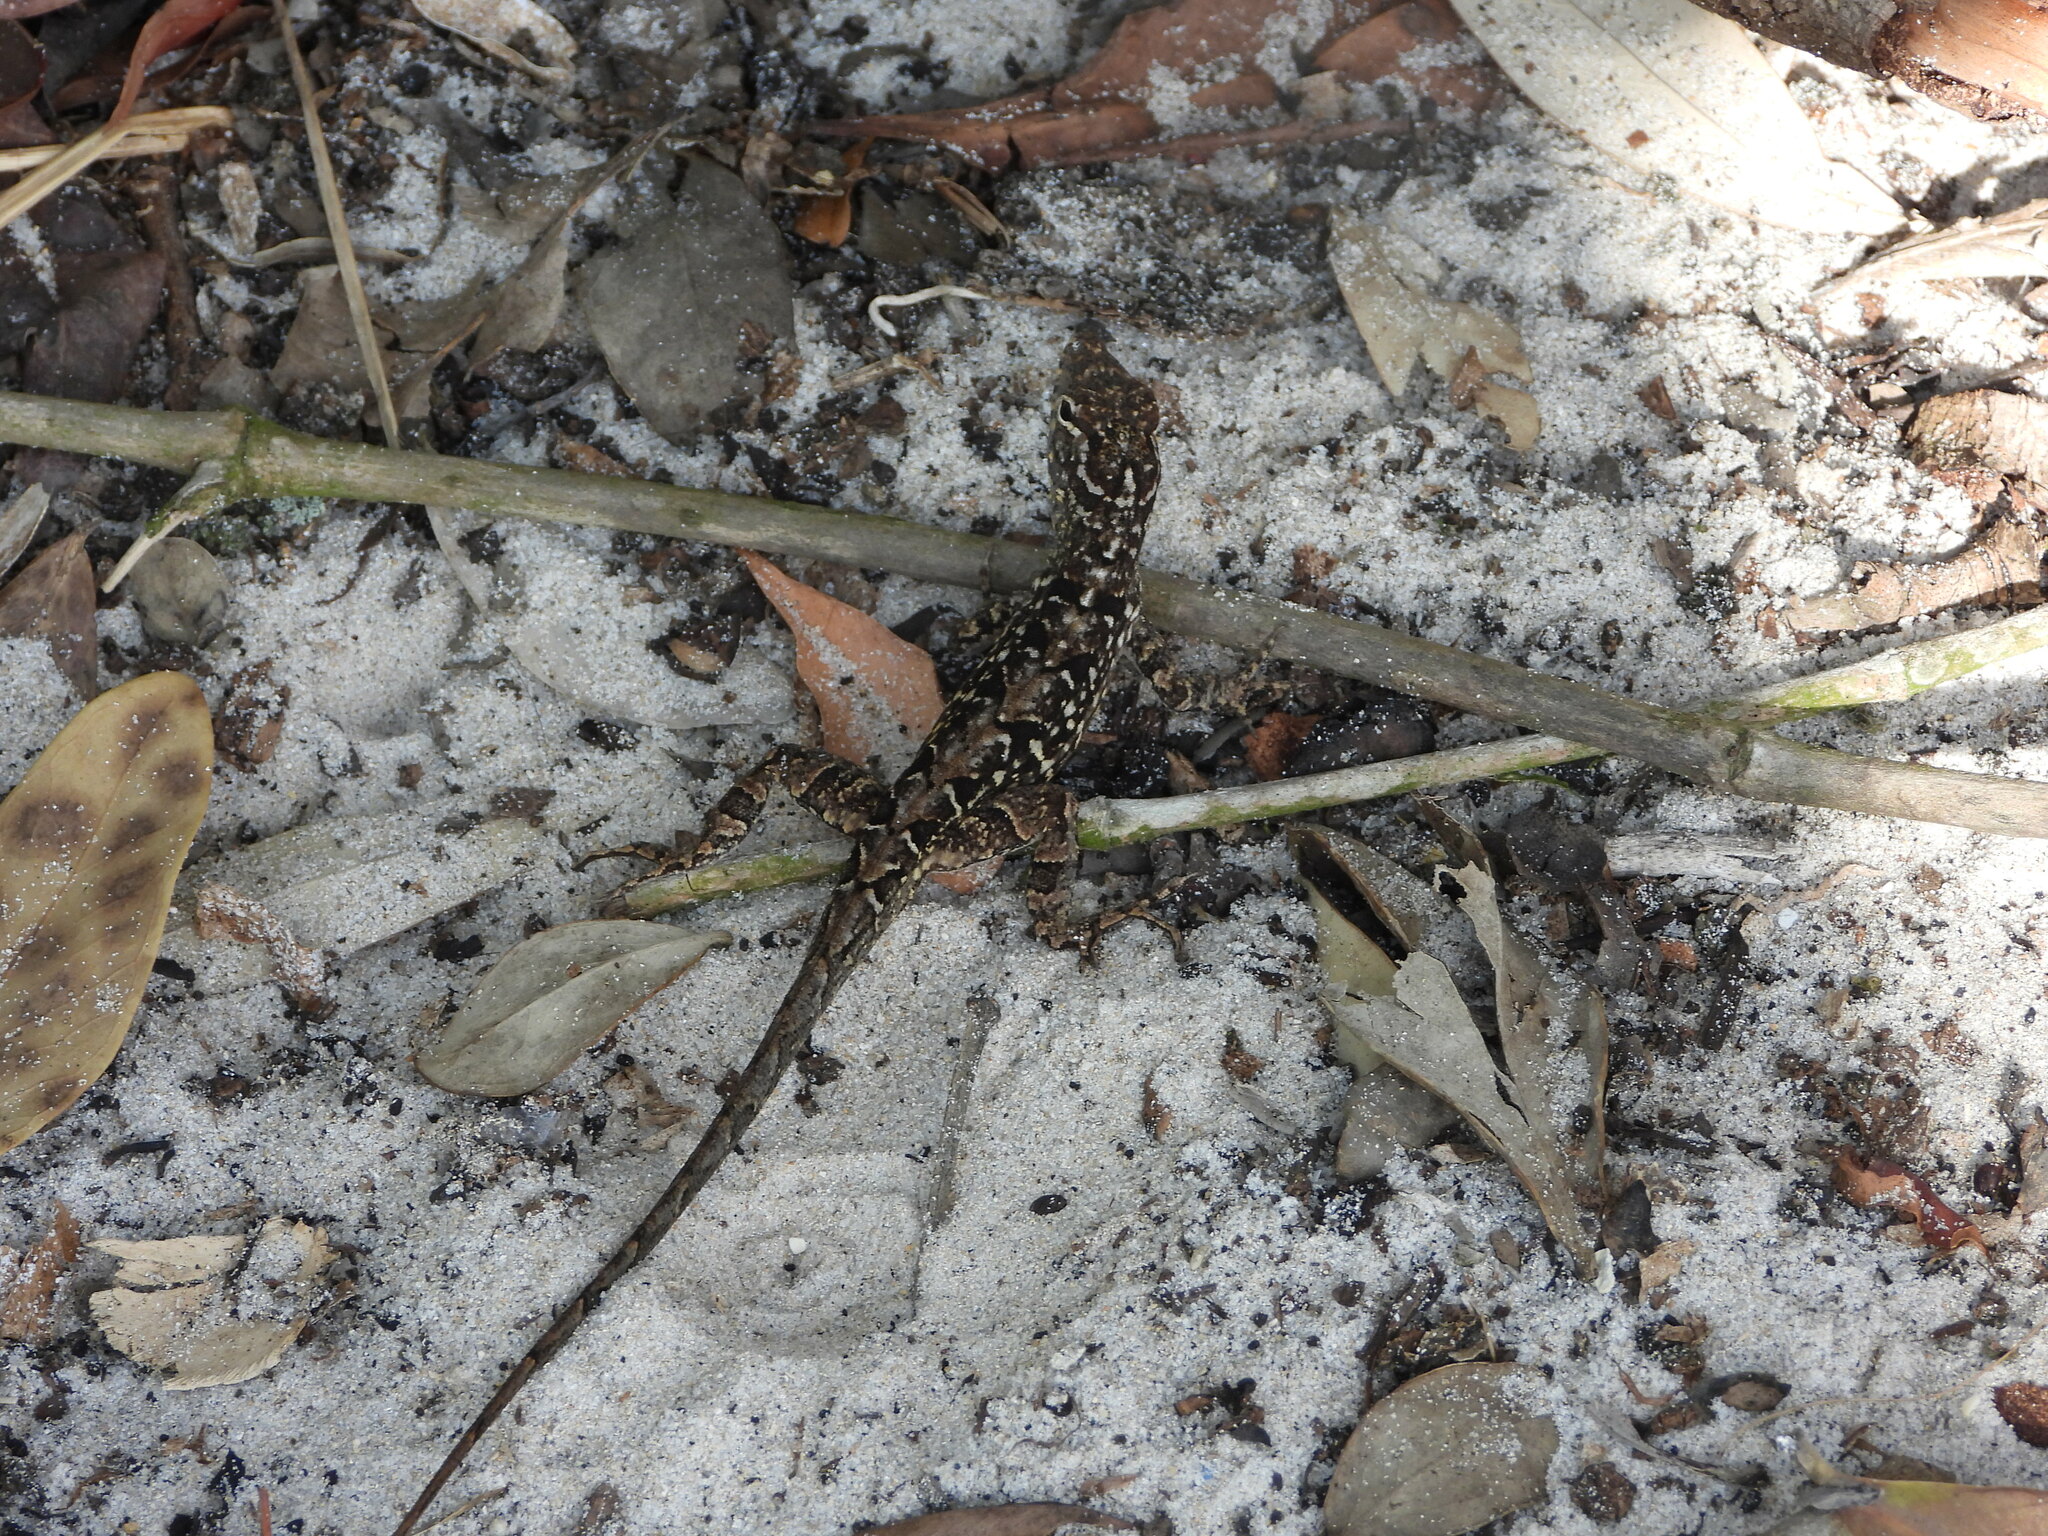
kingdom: Animalia
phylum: Chordata
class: Squamata
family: Dactyloidae
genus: Anolis
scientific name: Anolis sagrei
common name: Brown anole
